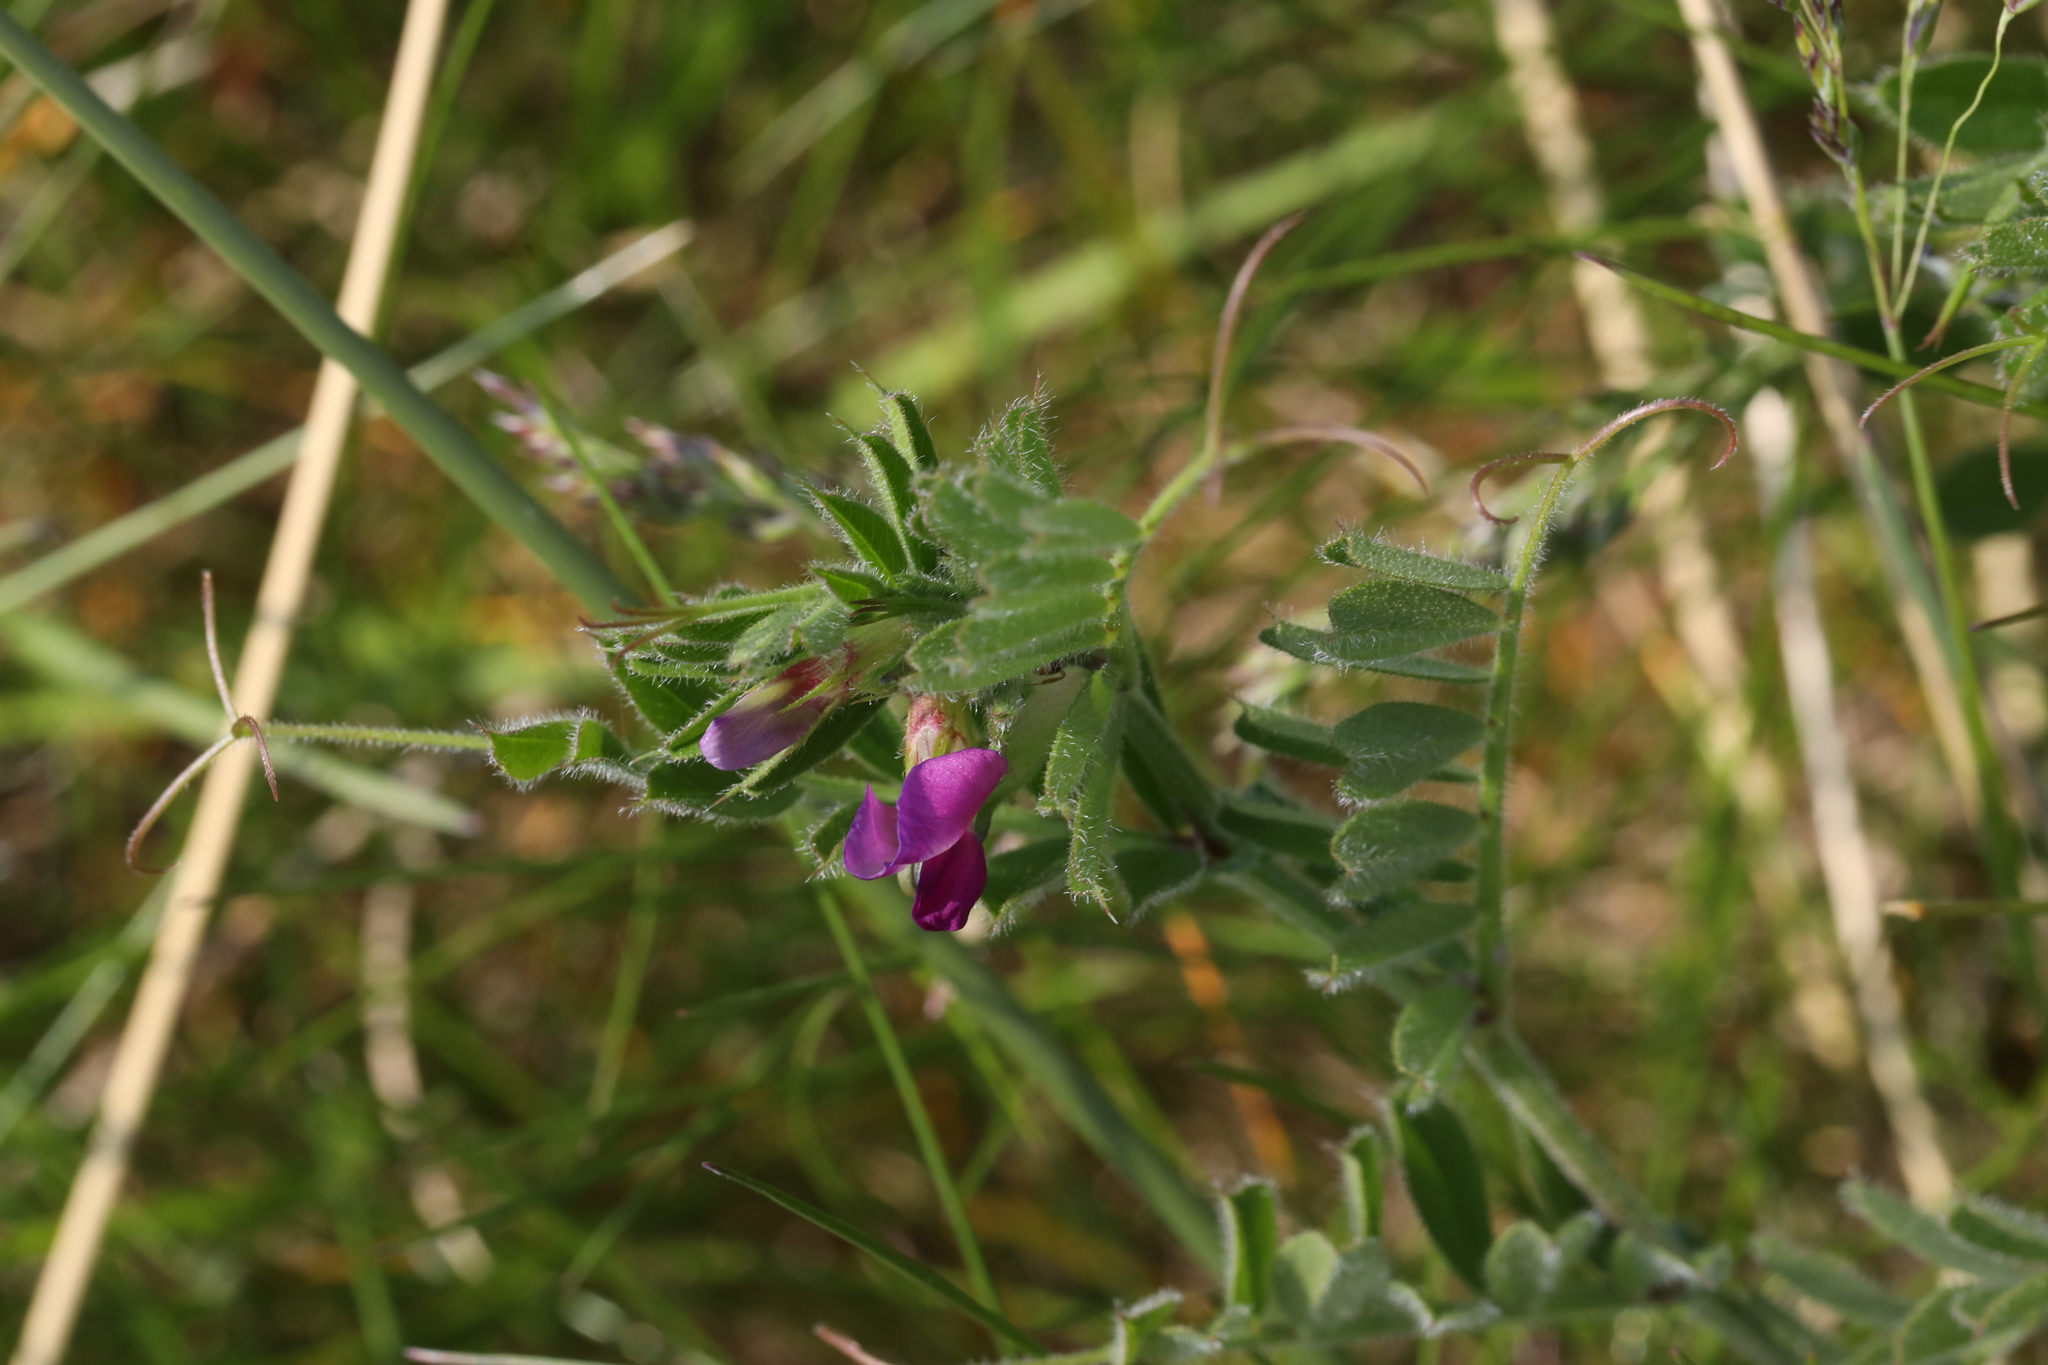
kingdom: Plantae
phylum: Tracheophyta
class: Magnoliopsida
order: Fabales
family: Fabaceae
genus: Vicia
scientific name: Vicia sativa
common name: Garden vetch
